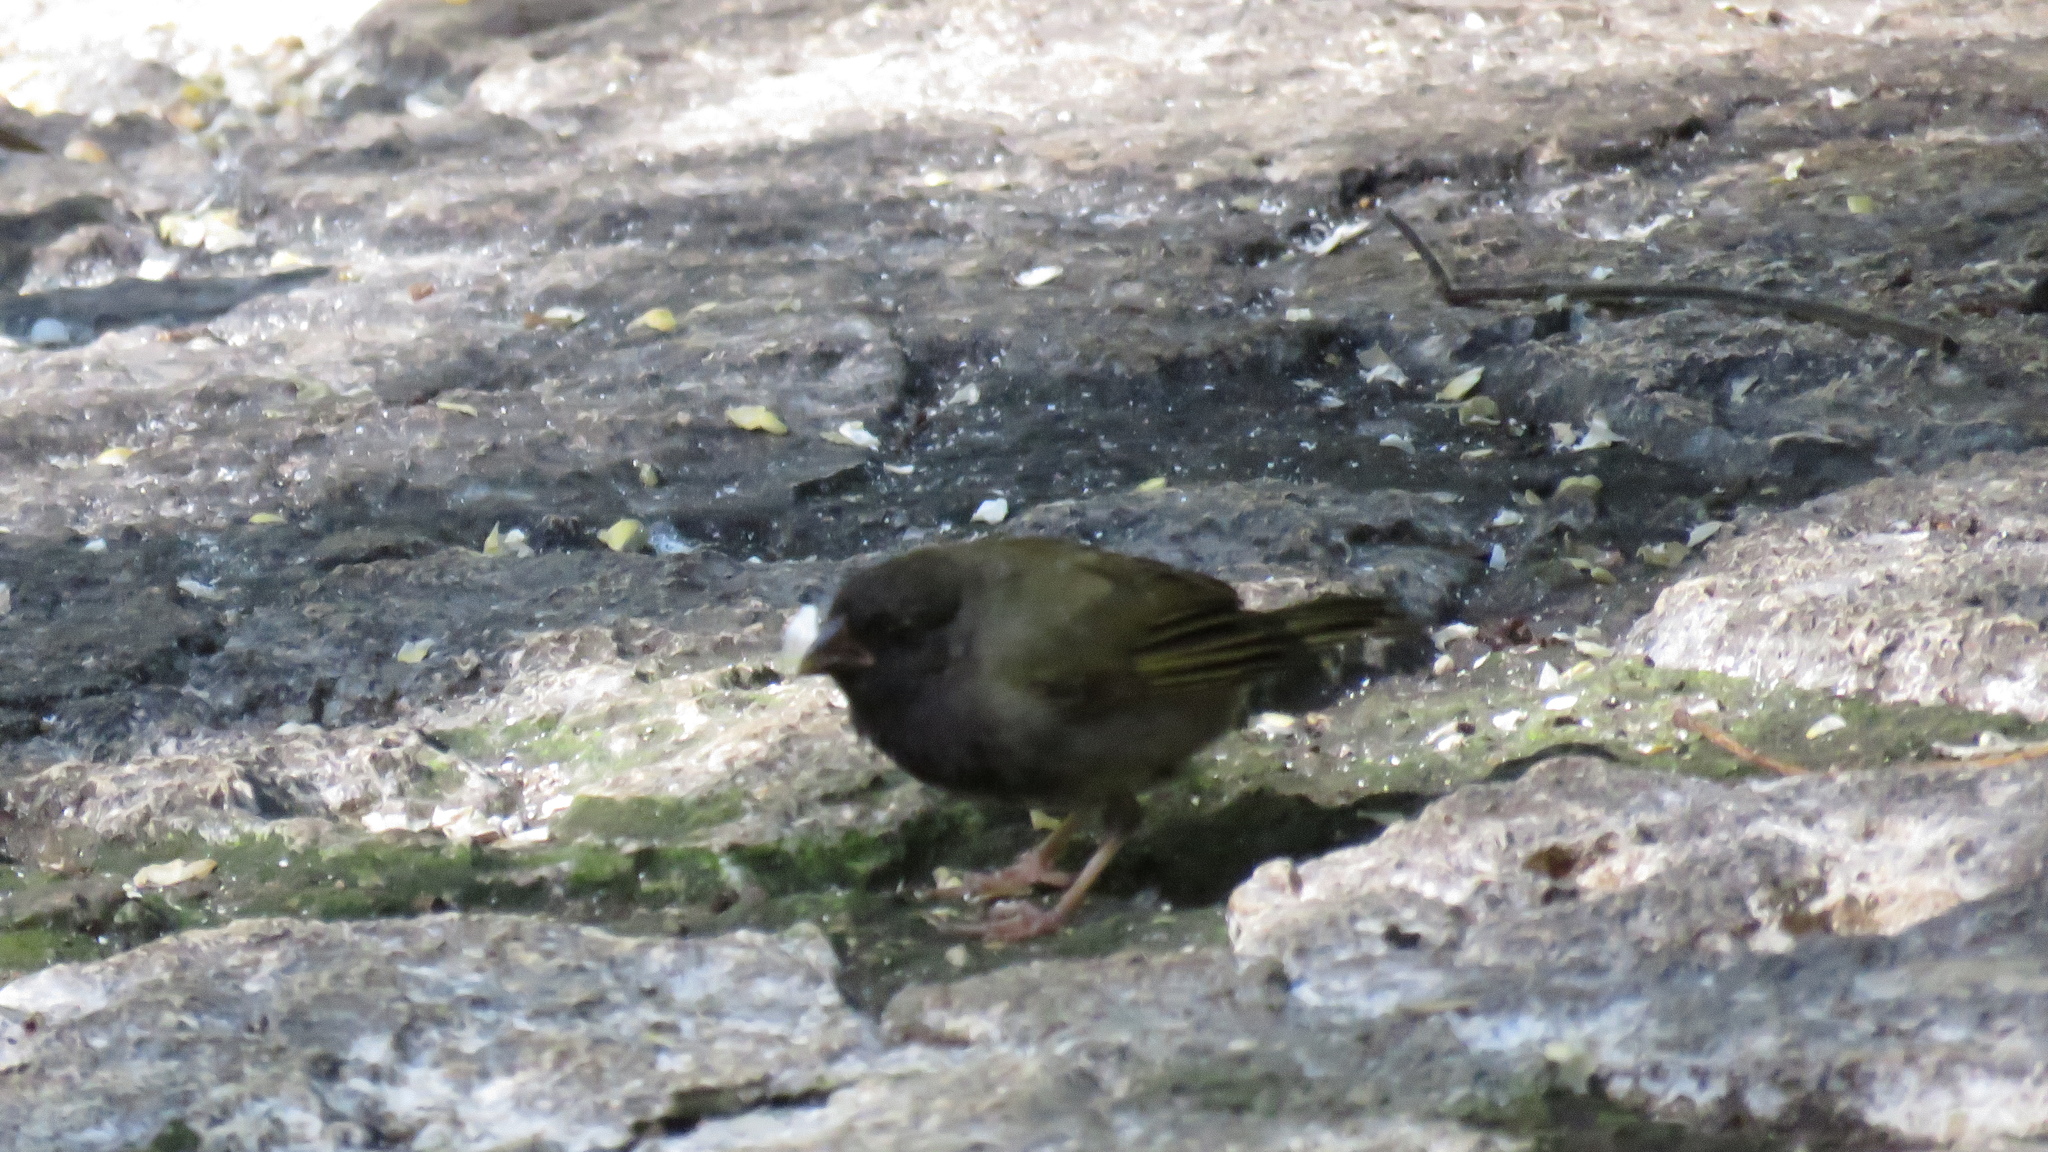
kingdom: Animalia
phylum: Chordata
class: Aves
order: Passeriformes
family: Thraupidae
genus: Melanospiza
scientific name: Melanospiza bicolor
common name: Black-faced grassquit
